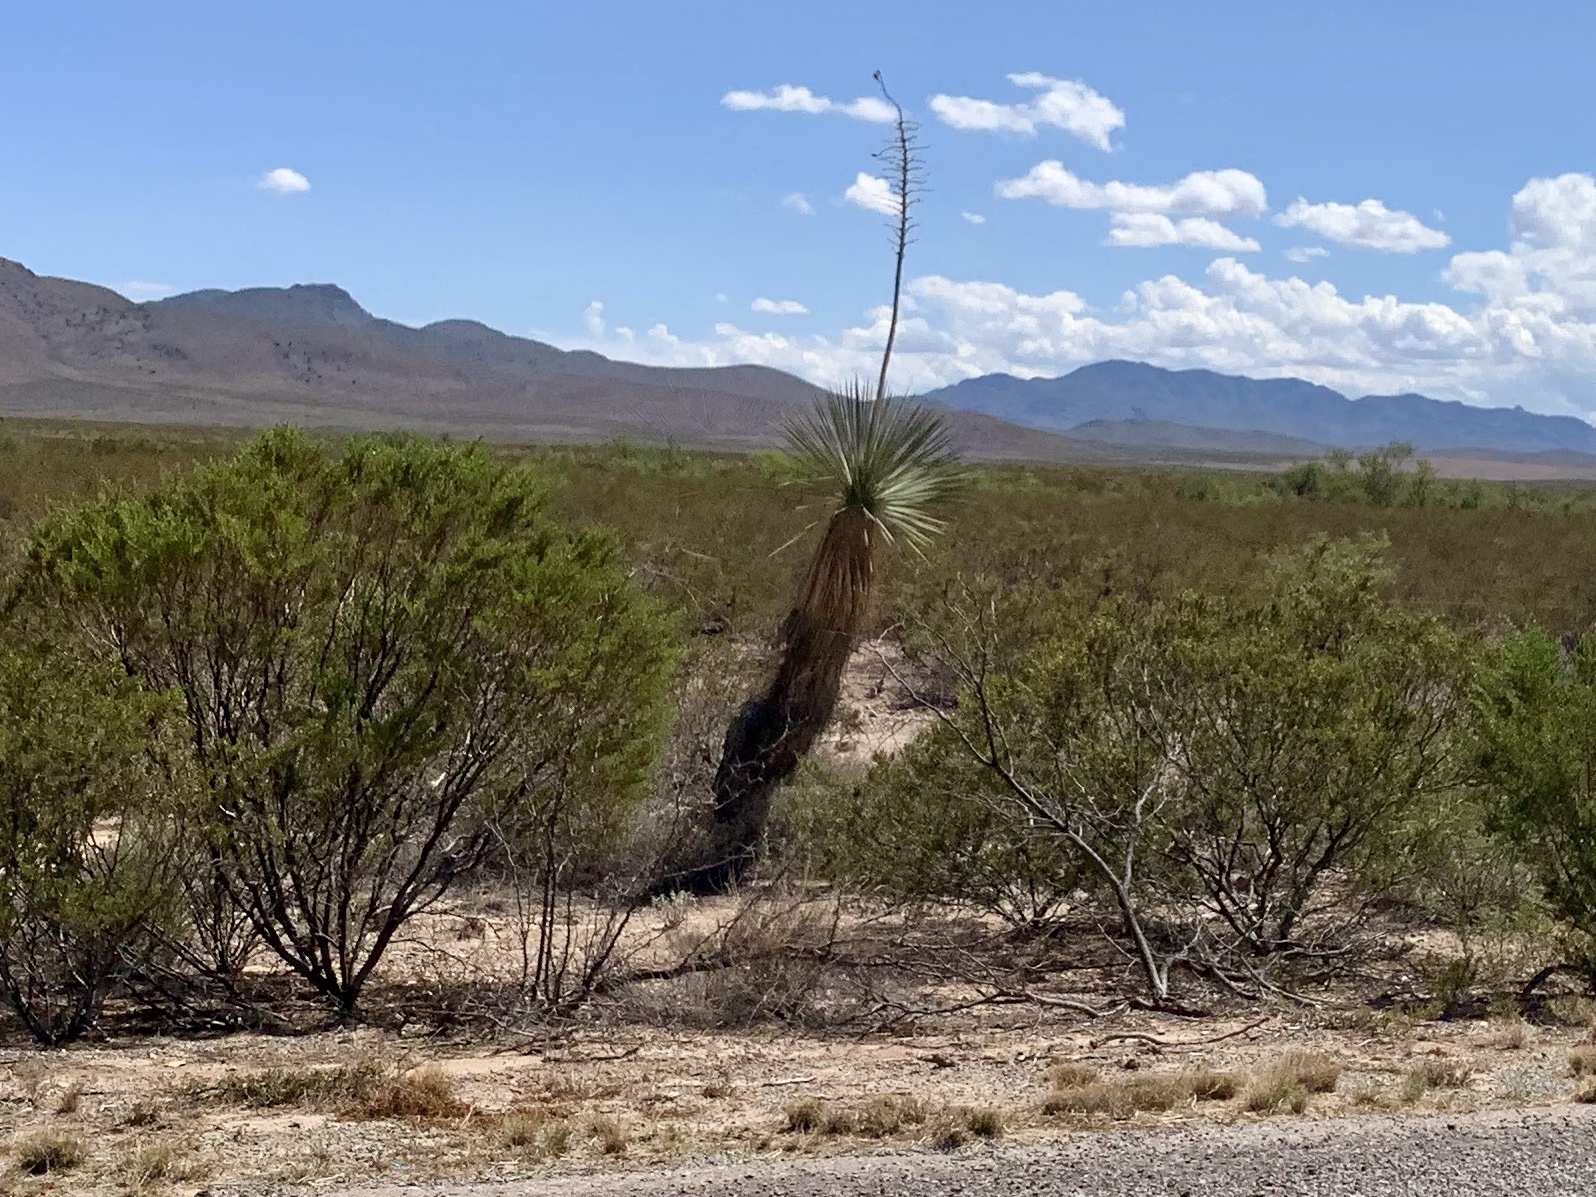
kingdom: Plantae
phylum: Tracheophyta
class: Liliopsida
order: Asparagales
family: Asparagaceae
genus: Yucca
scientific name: Yucca elata
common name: Palmella
